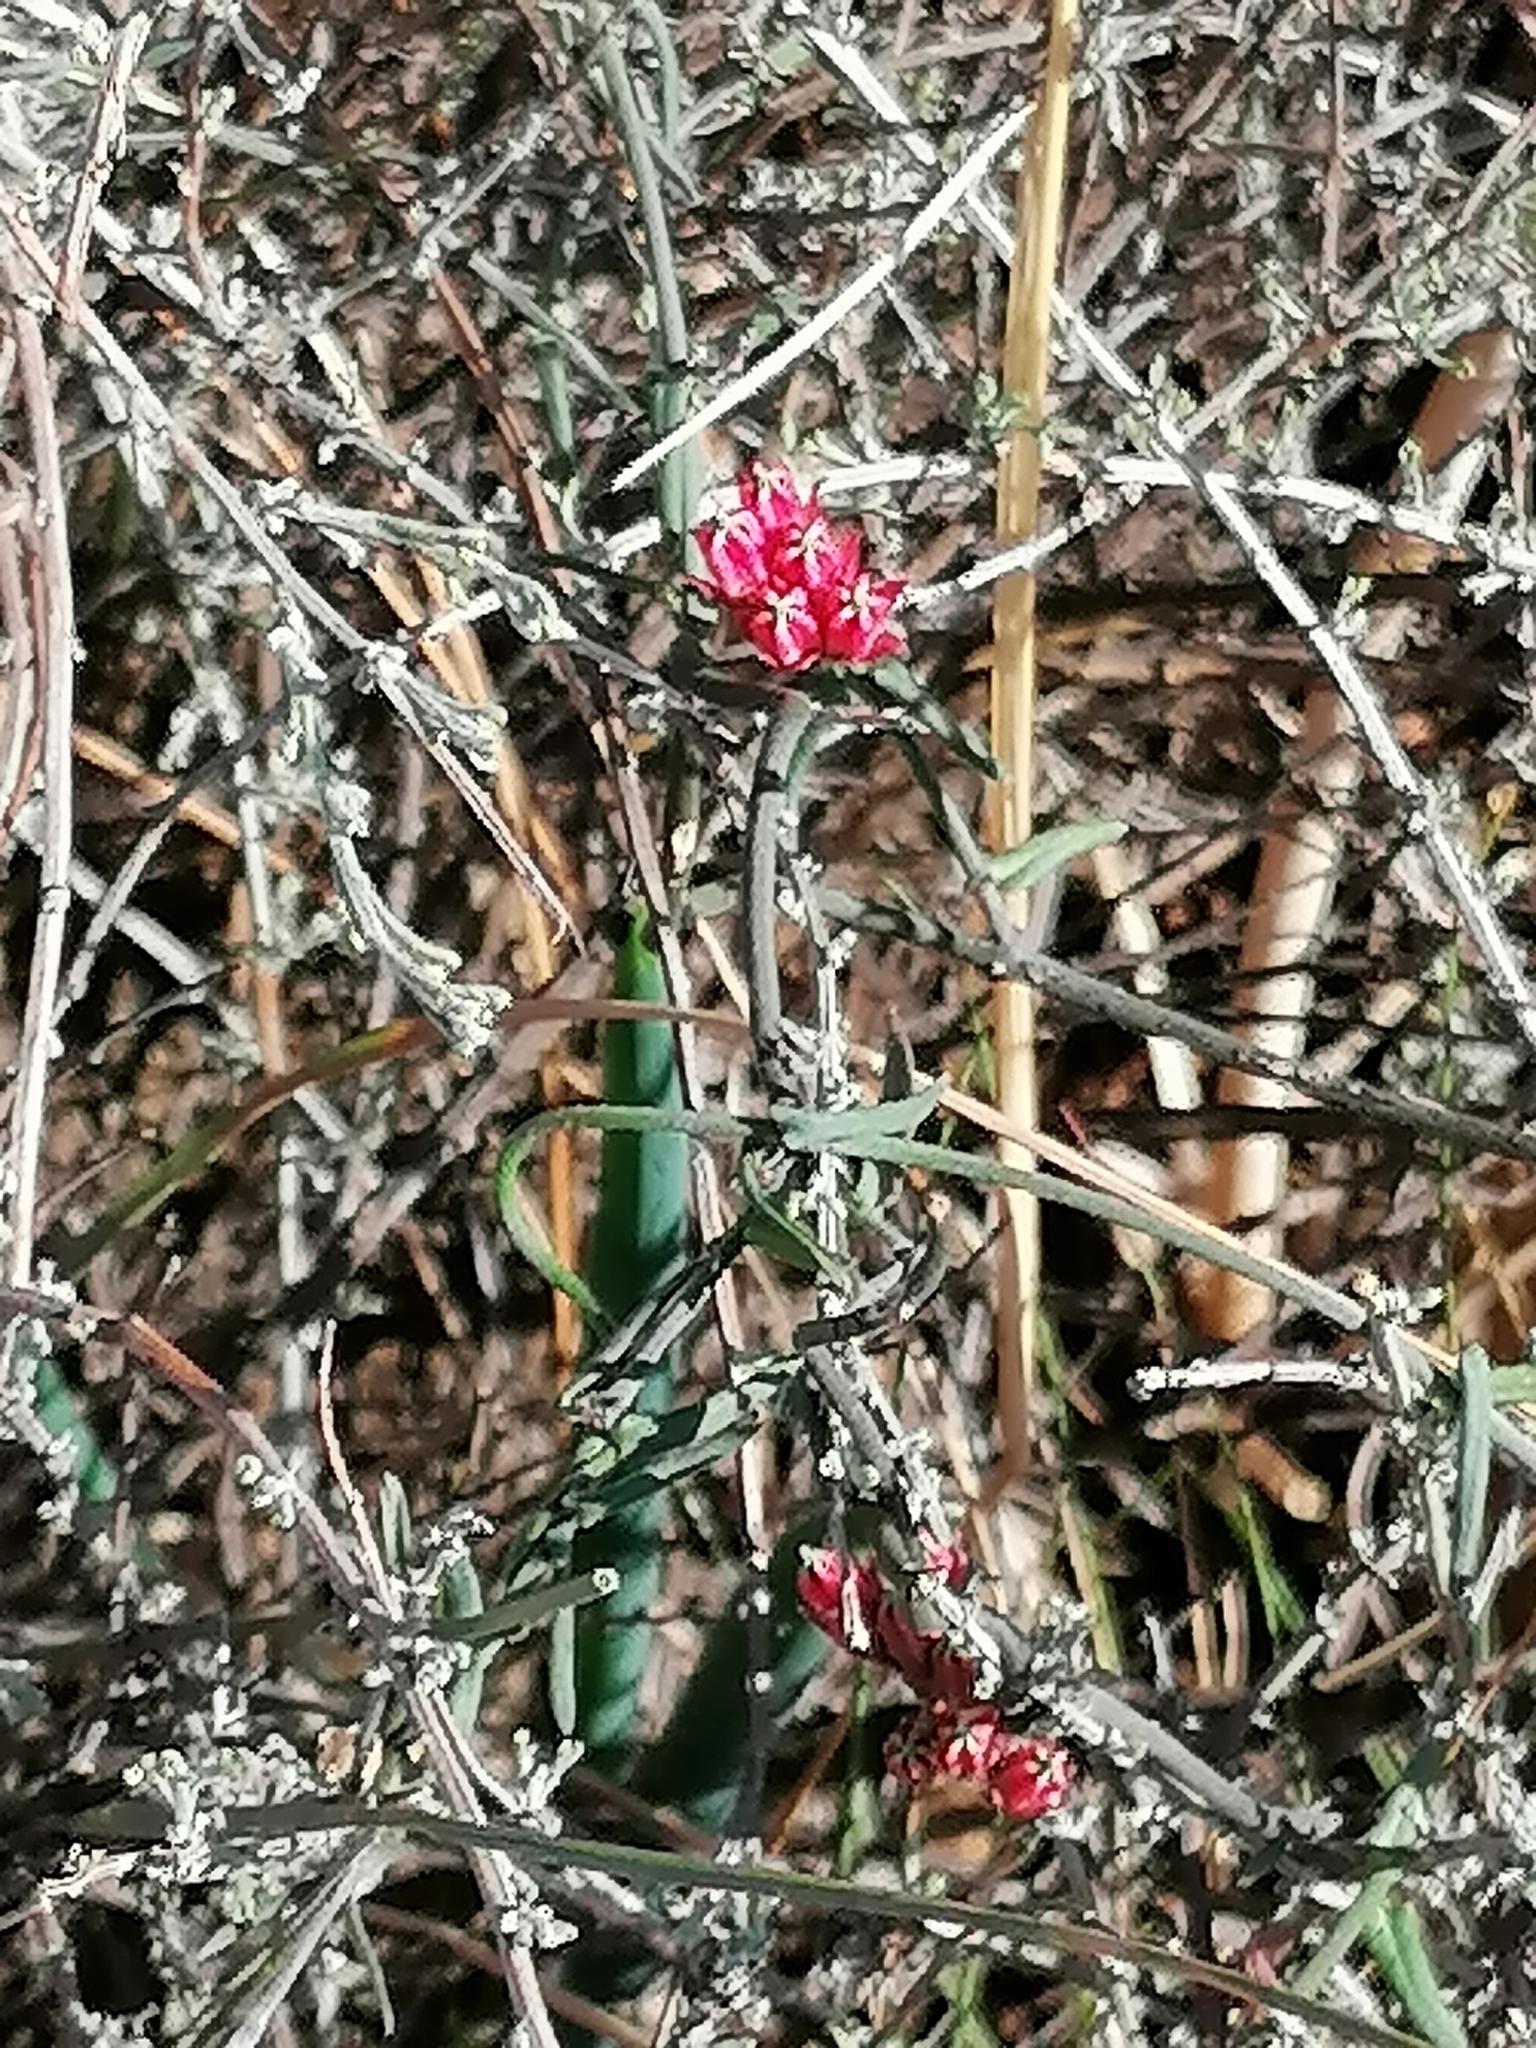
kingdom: Plantae
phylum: Tracheophyta
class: Magnoliopsida
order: Gentianales
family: Apocynaceae
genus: Microloma
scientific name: Microloma sagittatum
